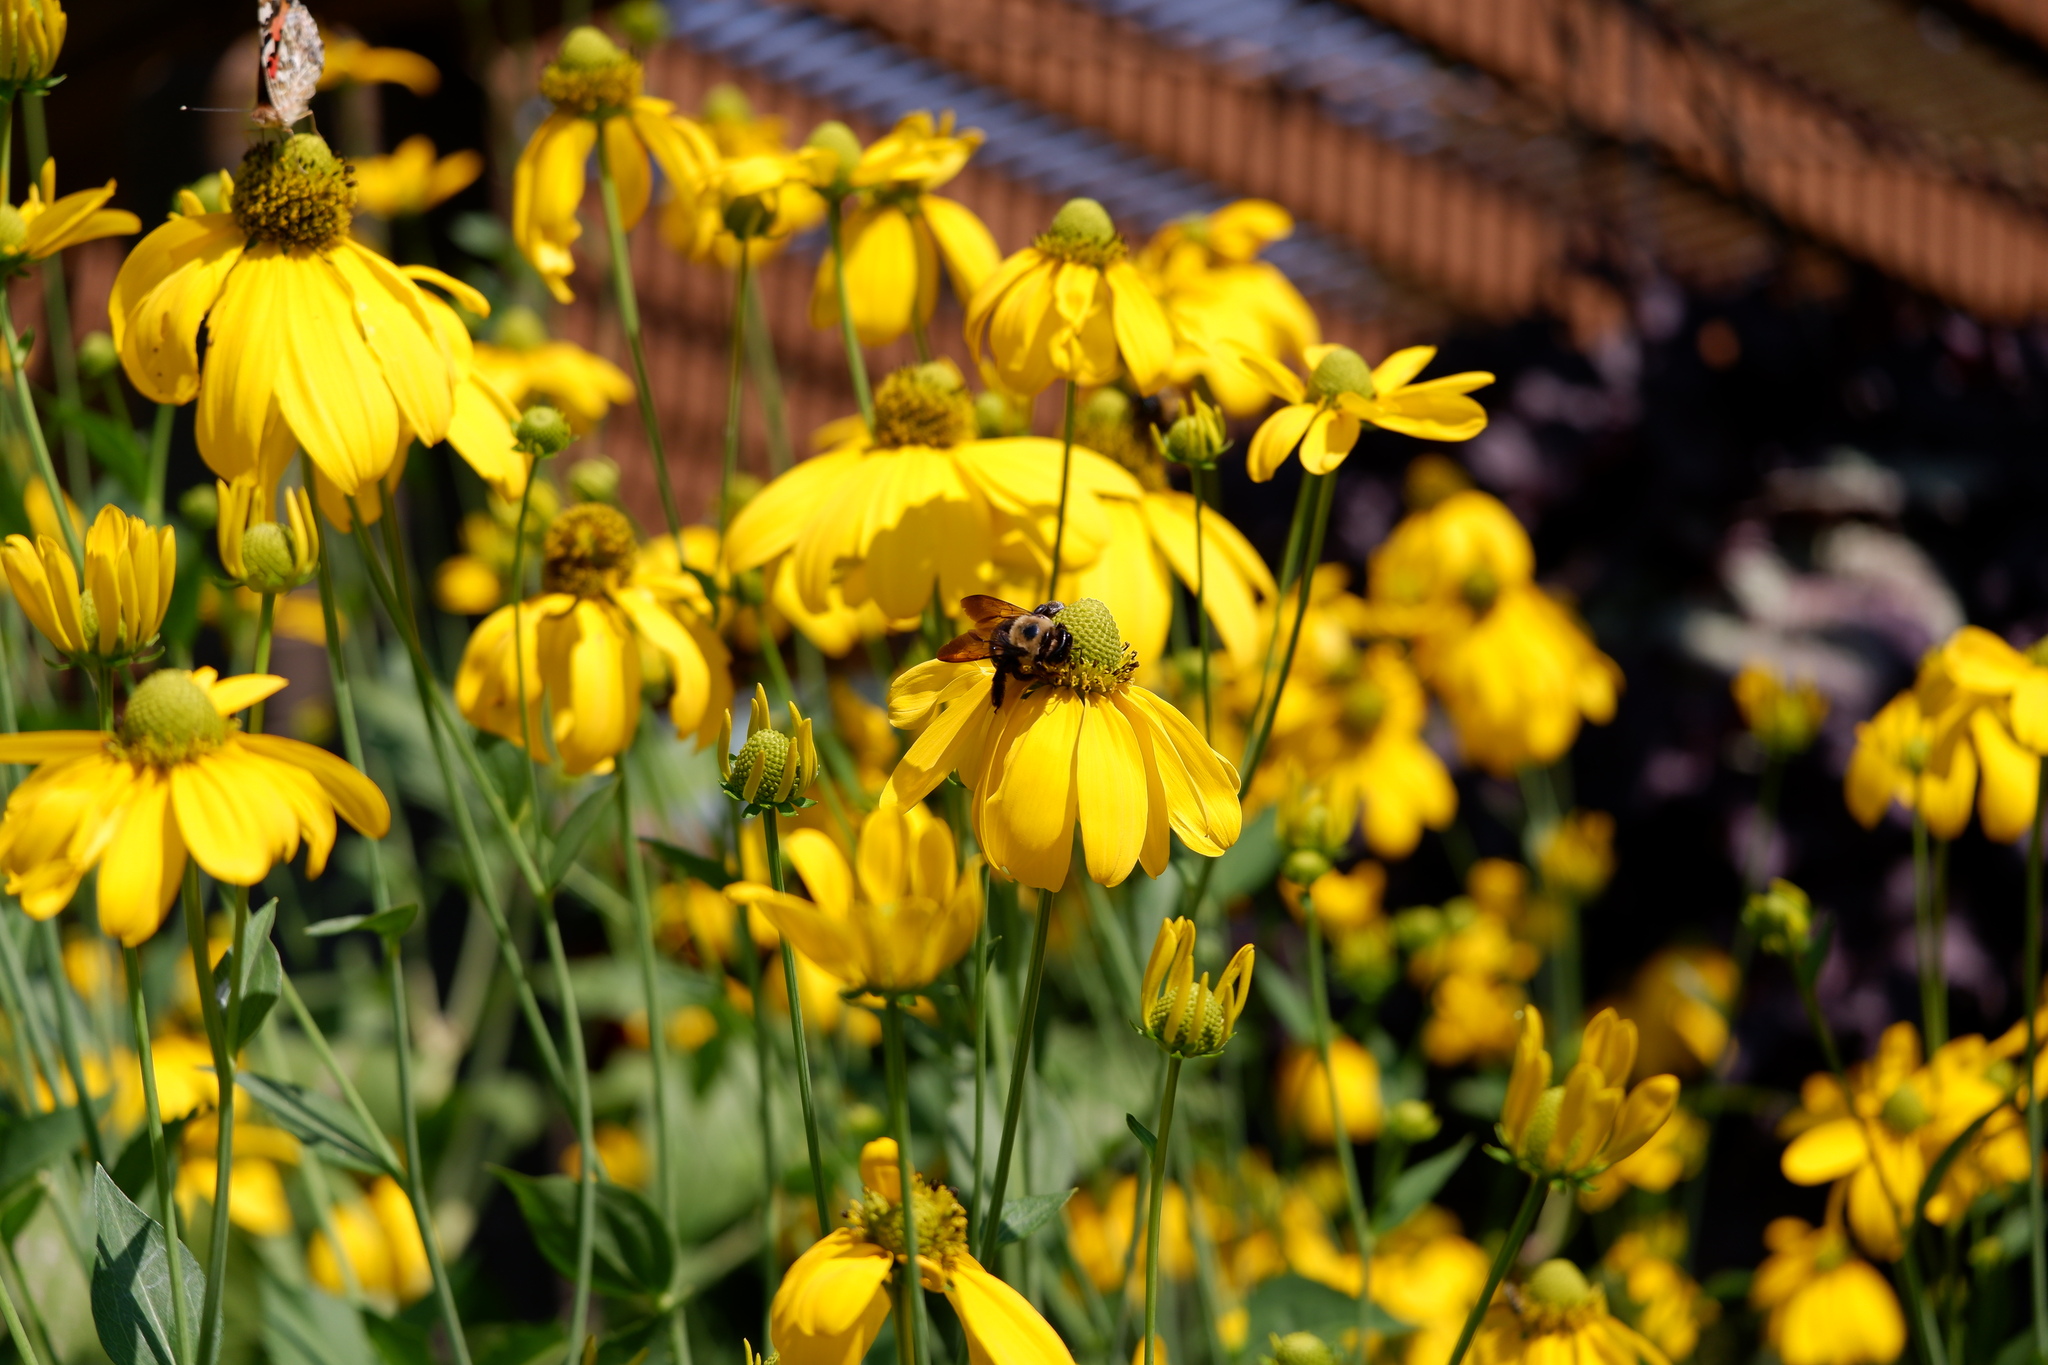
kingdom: Animalia
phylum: Arthropoda
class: Insecta
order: Hymenoptera
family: Apidae
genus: Xylocopa
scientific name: Xylocopa virginica
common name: Carpenter bee
